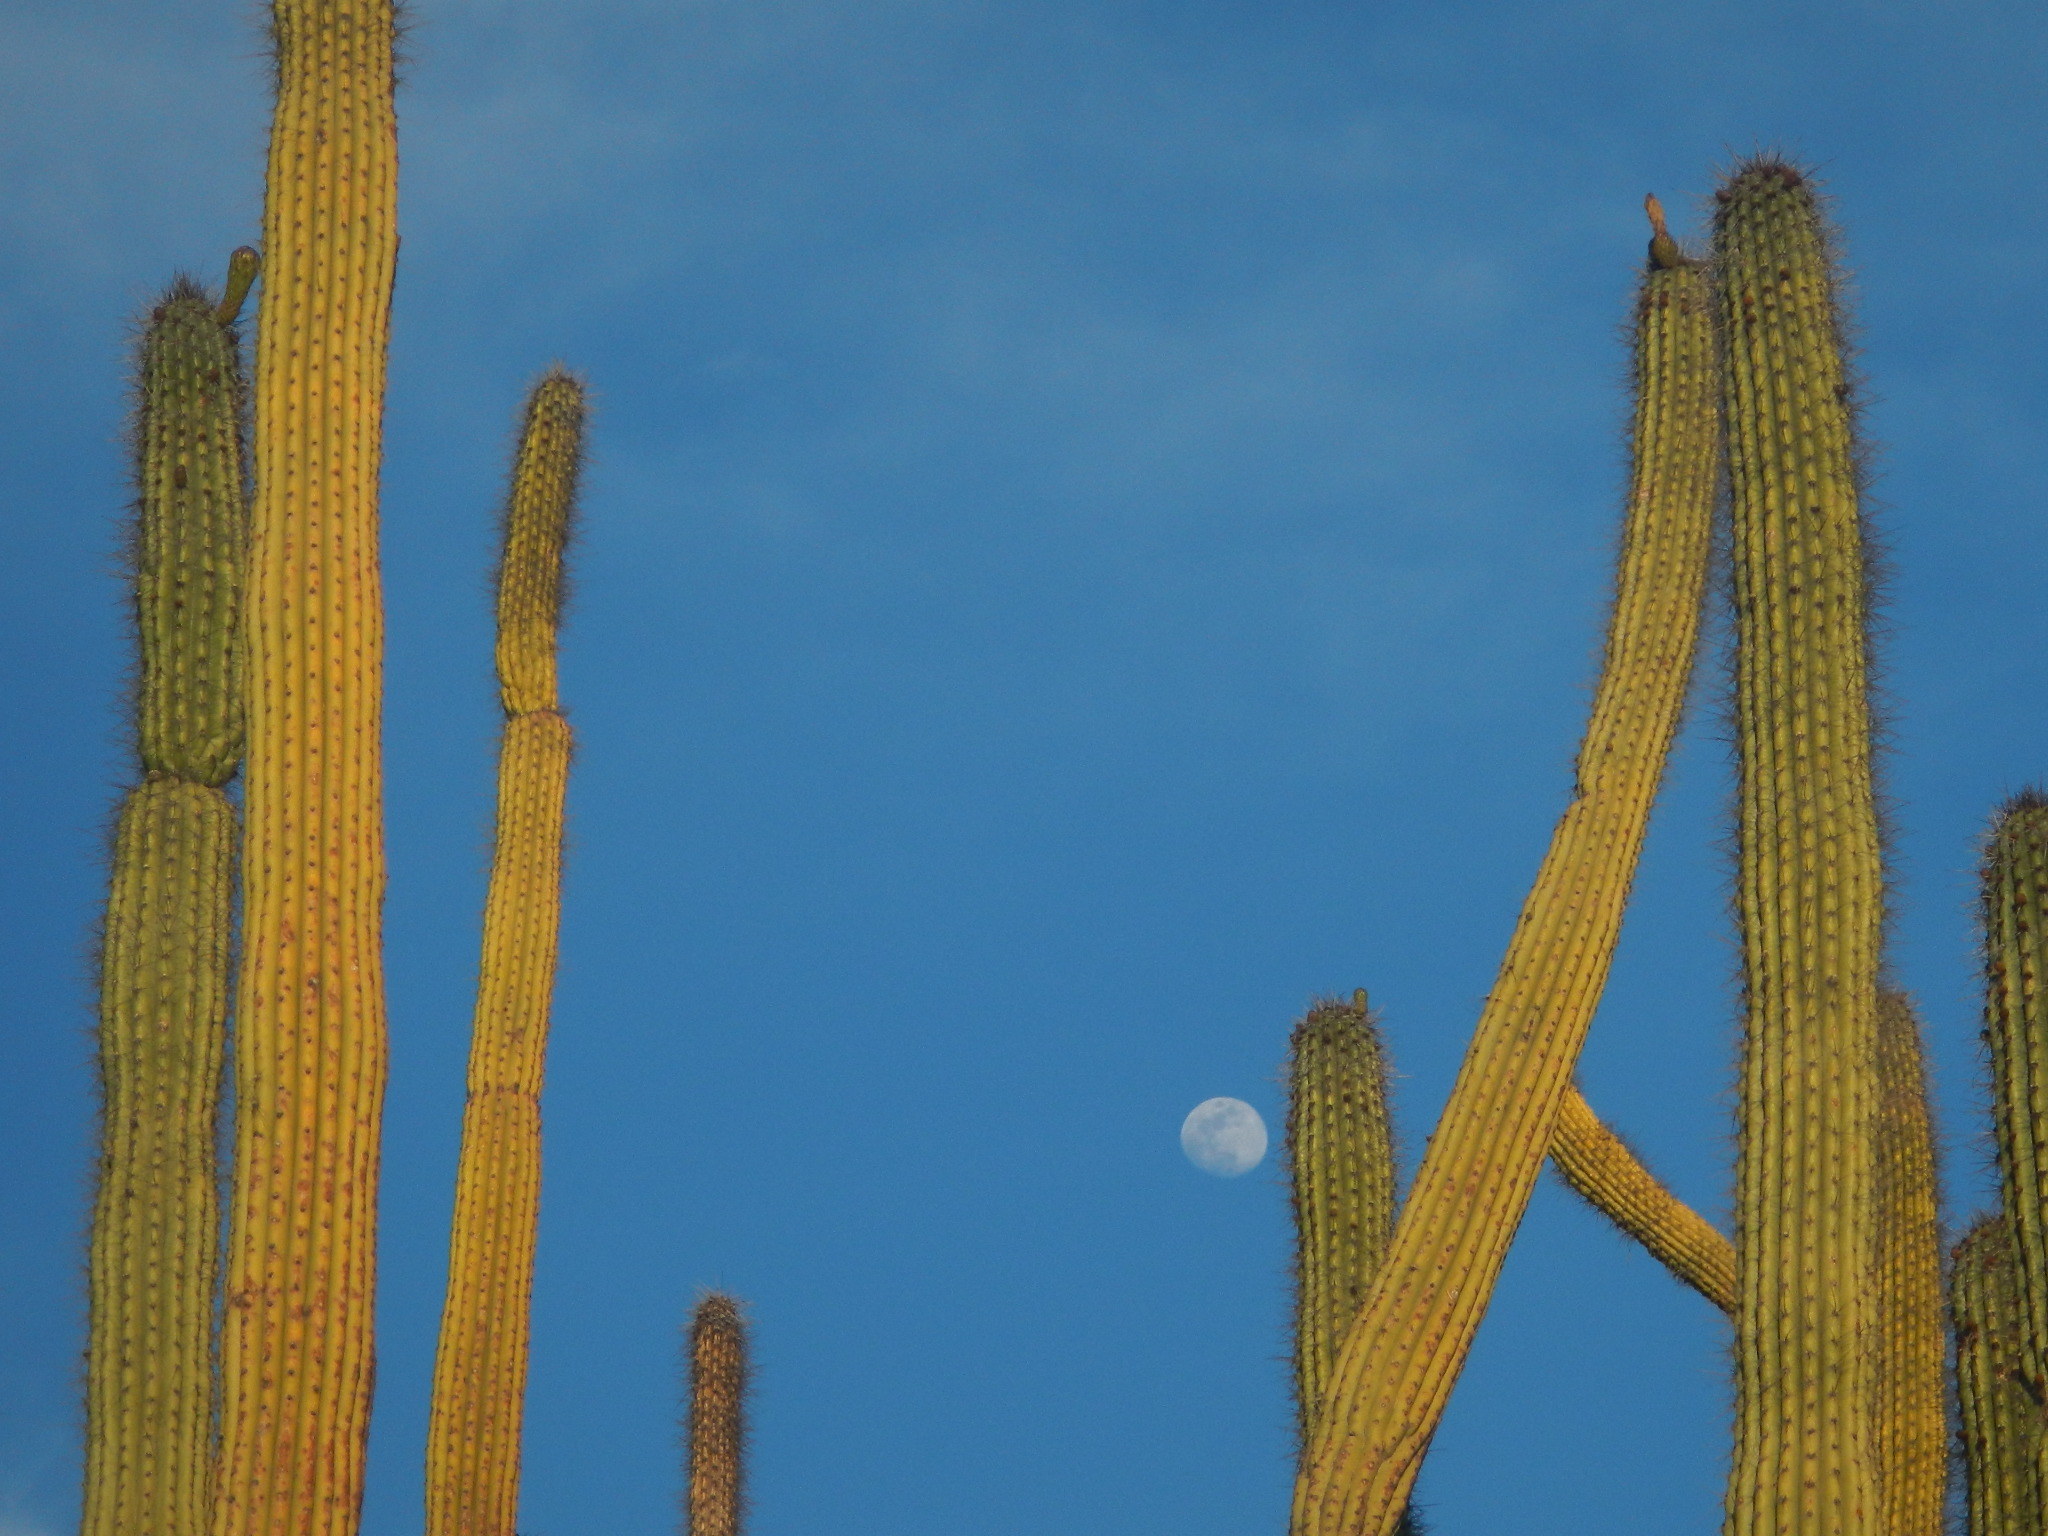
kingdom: Plantae
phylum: Tracheophyta
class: Magnoliopsida
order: Caryophyllales
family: Cactaceae
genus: Stenocereus
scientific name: Stenocereus thurberi
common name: Organ pipe cactus
